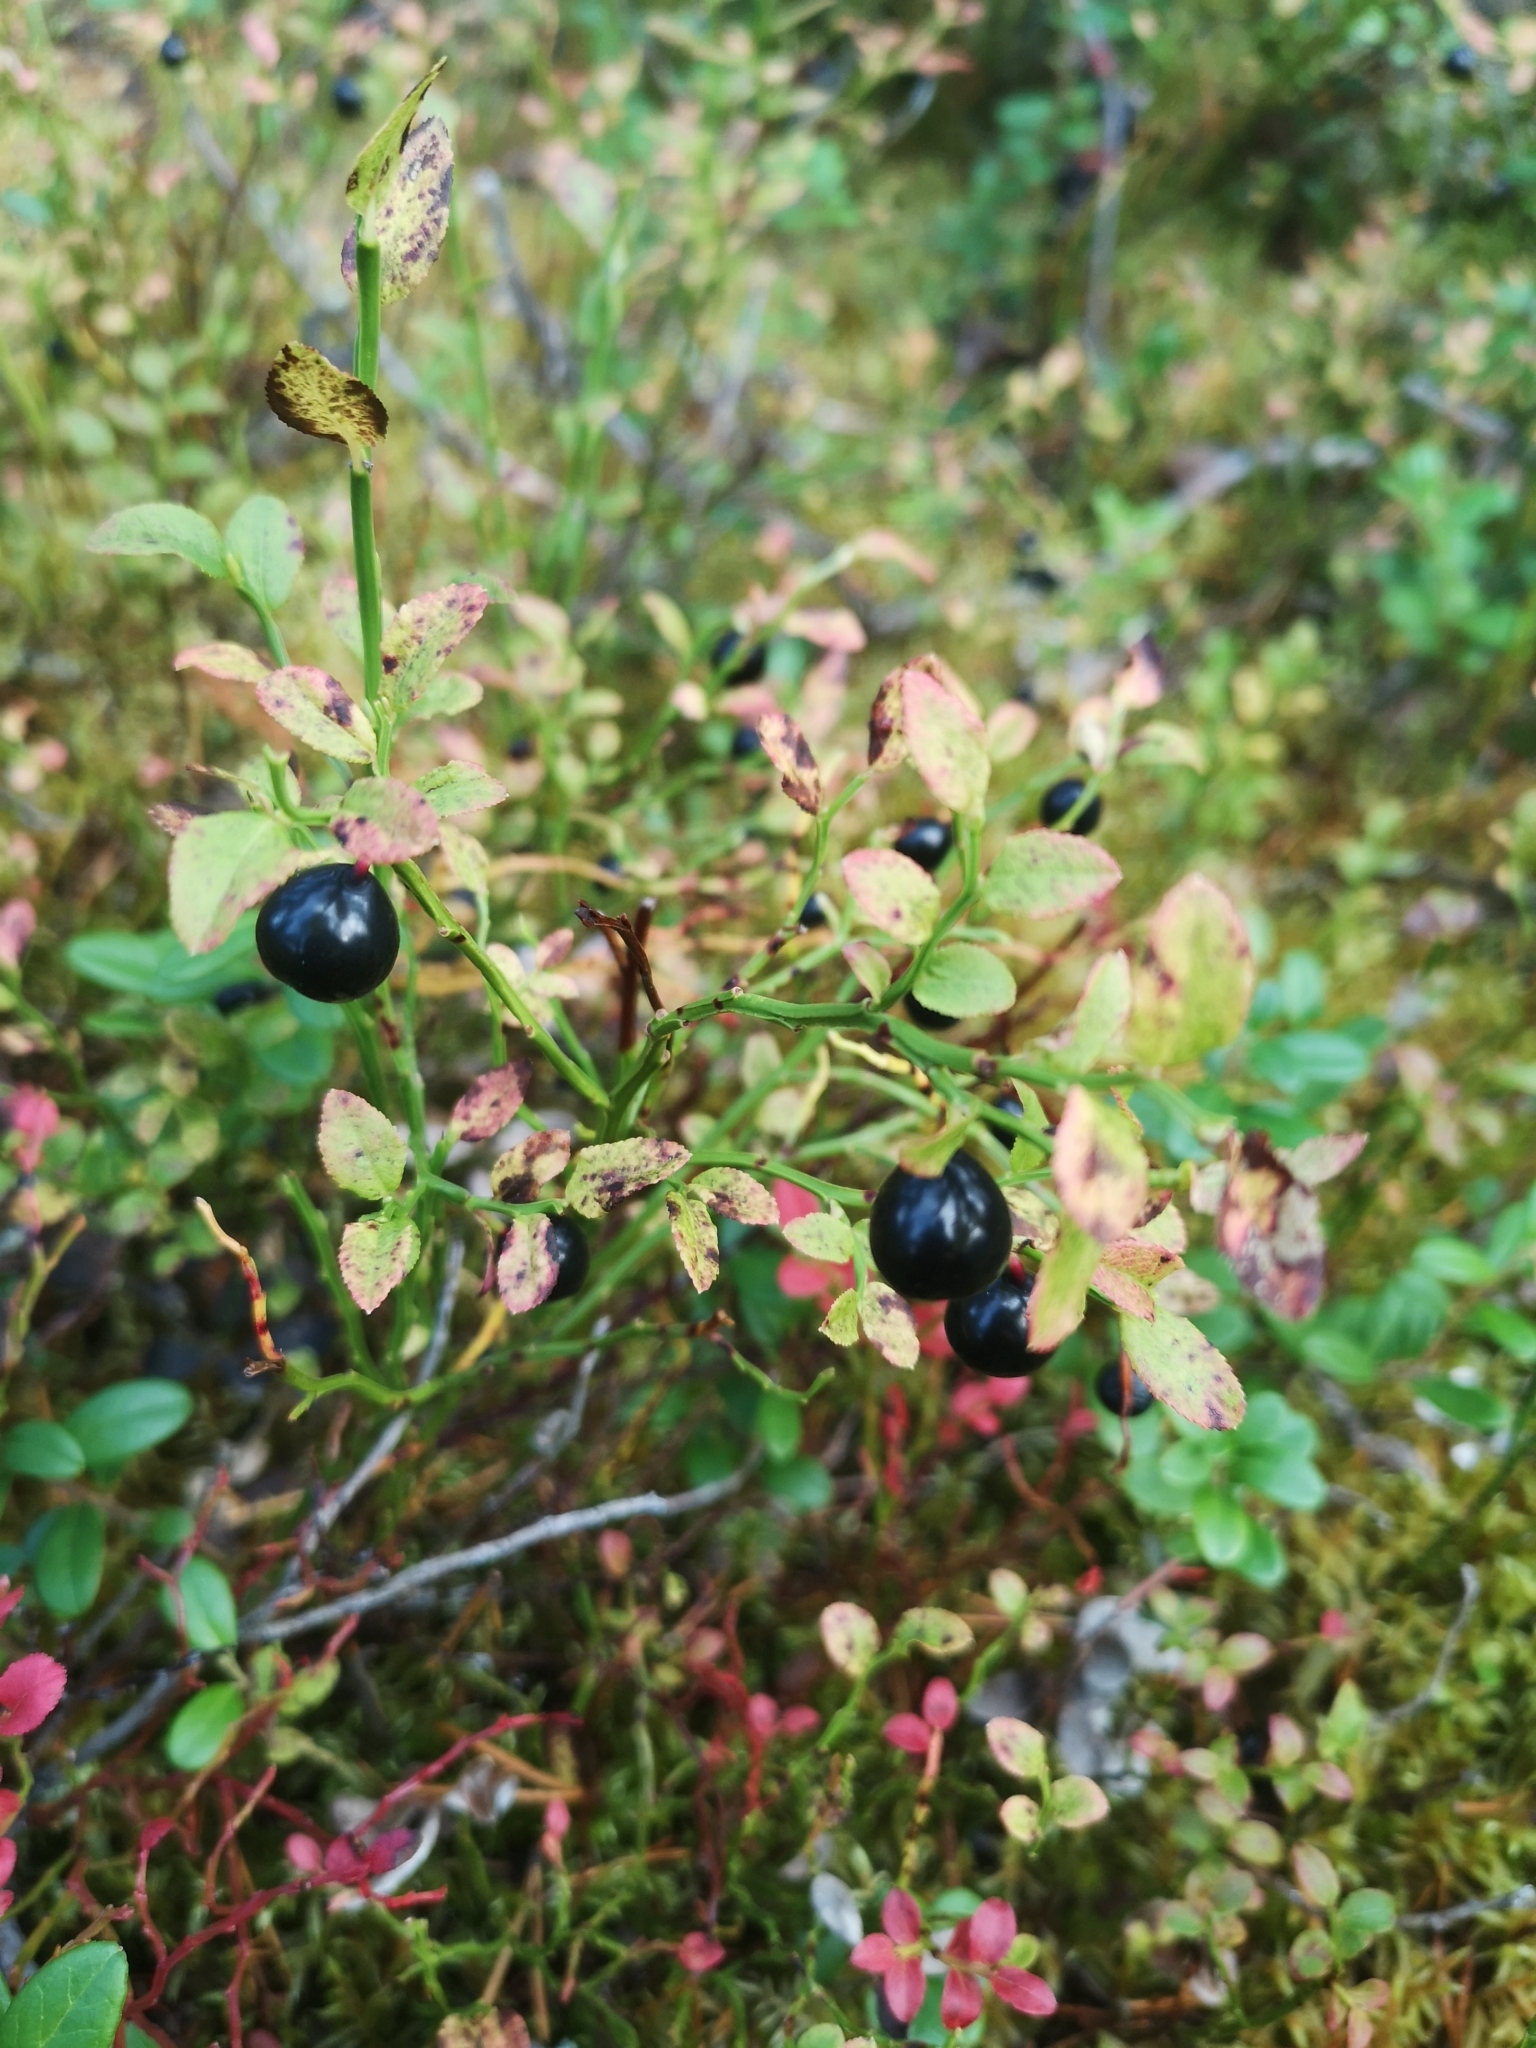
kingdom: Plantae
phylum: Tracheophyta
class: Magnoliopsida
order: Ericales
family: Ericaceae
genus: Vaccinium
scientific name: Vaccinium myrtillus
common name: Bilberry
